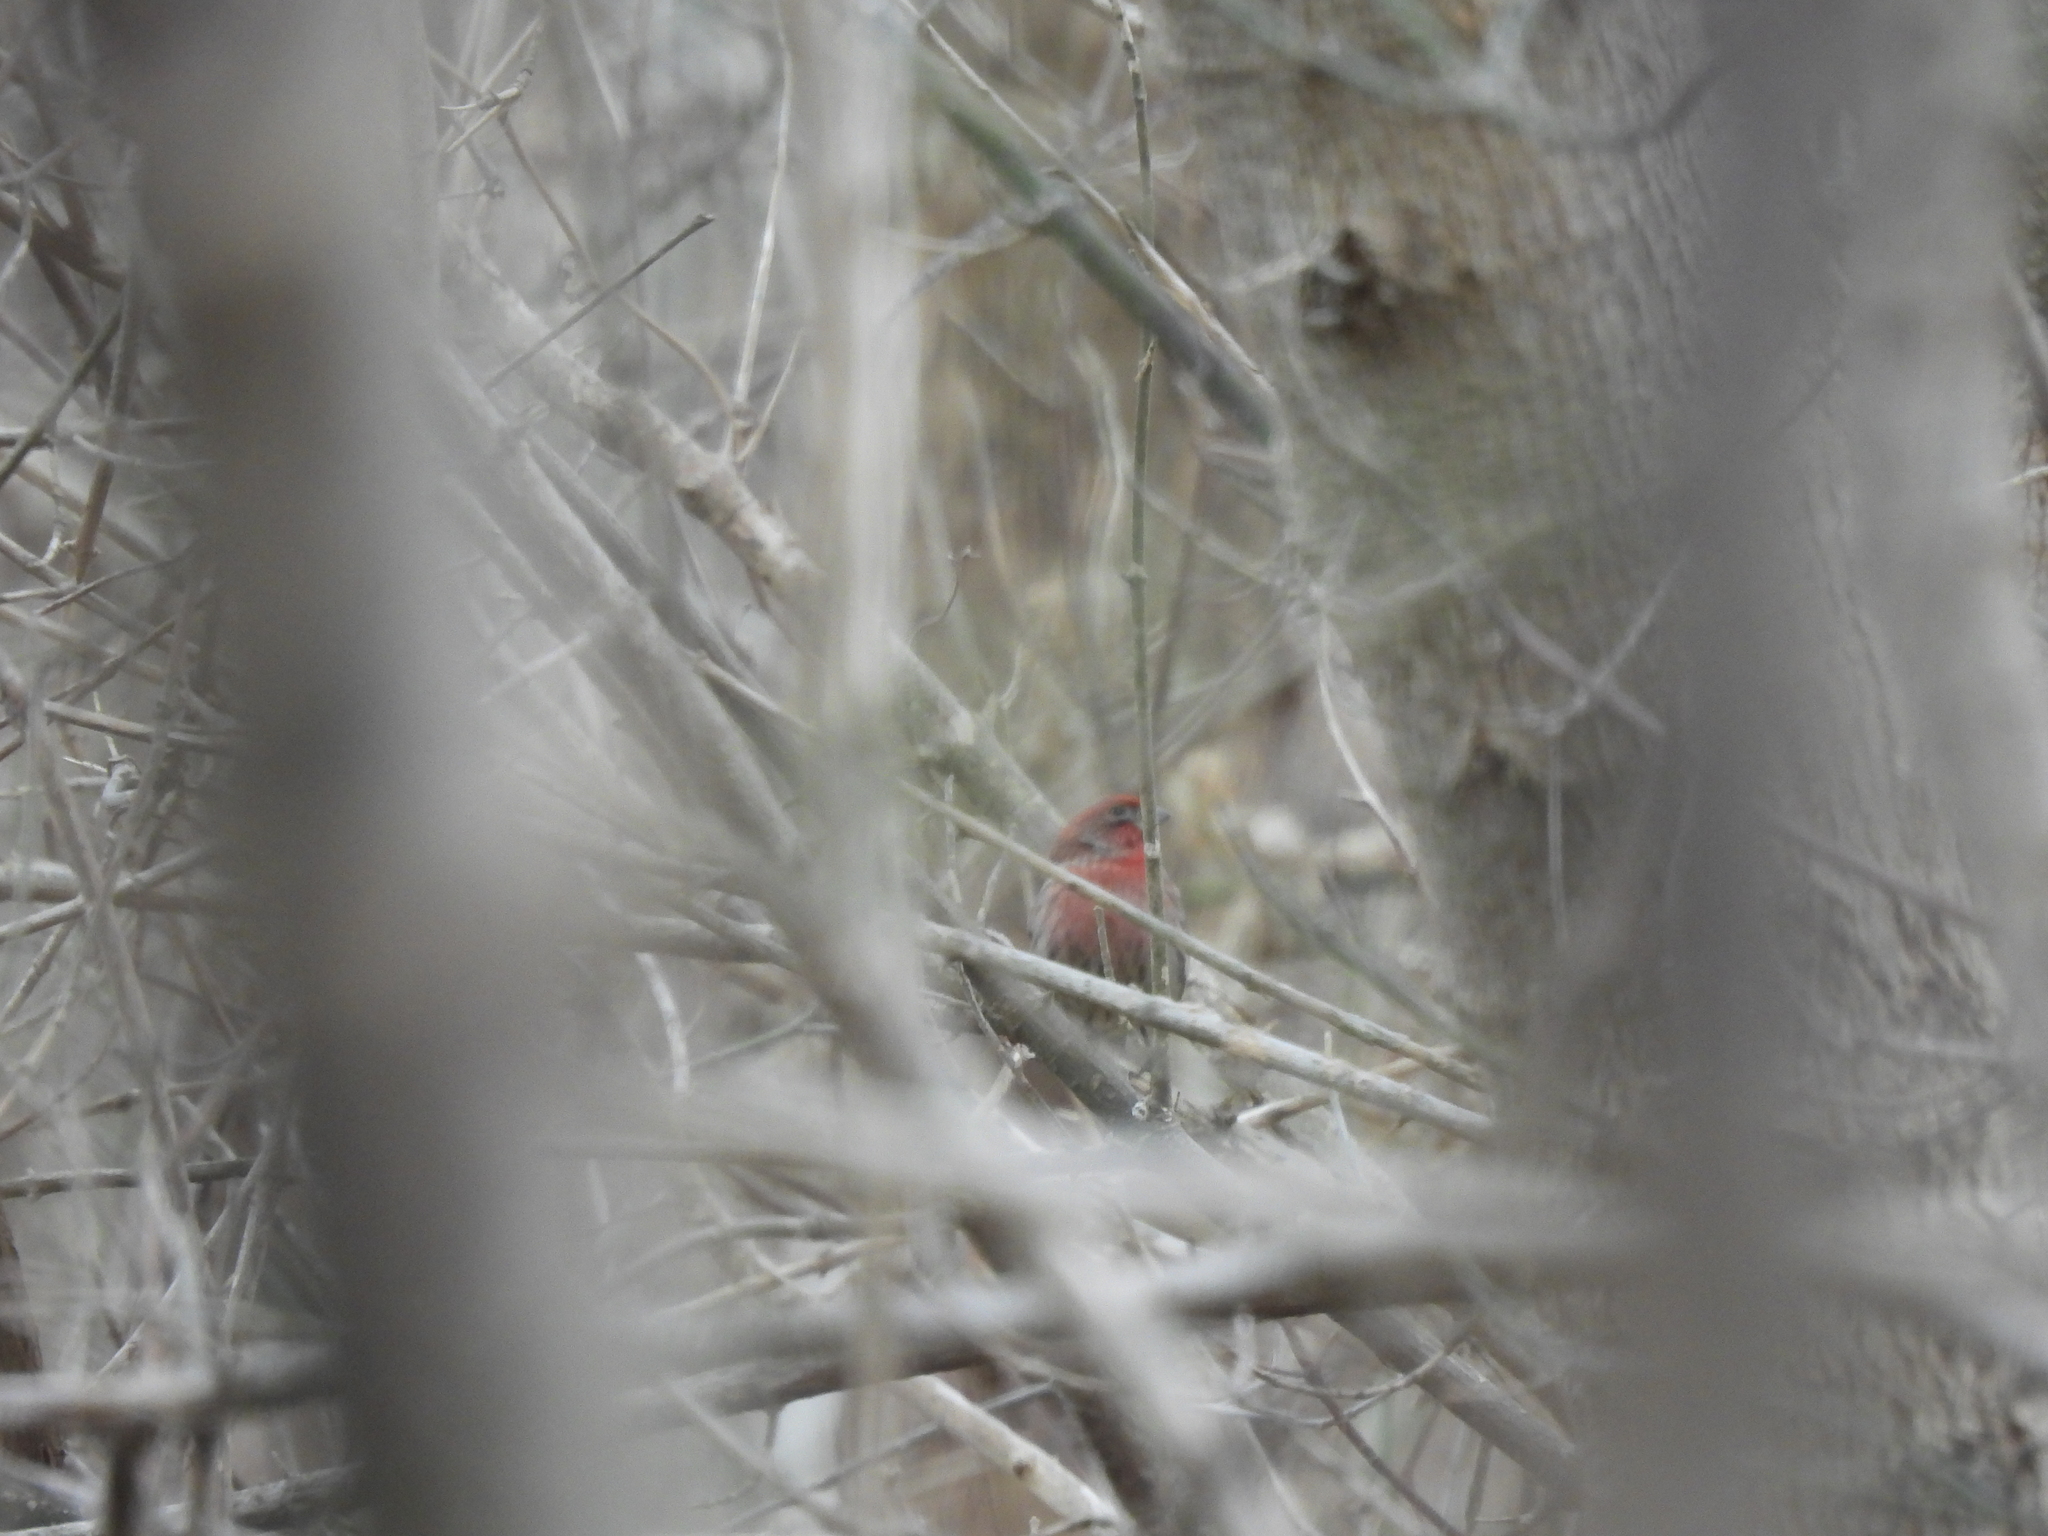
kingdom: Animalia
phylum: Chordata
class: Aves
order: Passeriformes
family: Fringillidae
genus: Haemorhous
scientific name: Haemorhous mexicanus
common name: House finch
